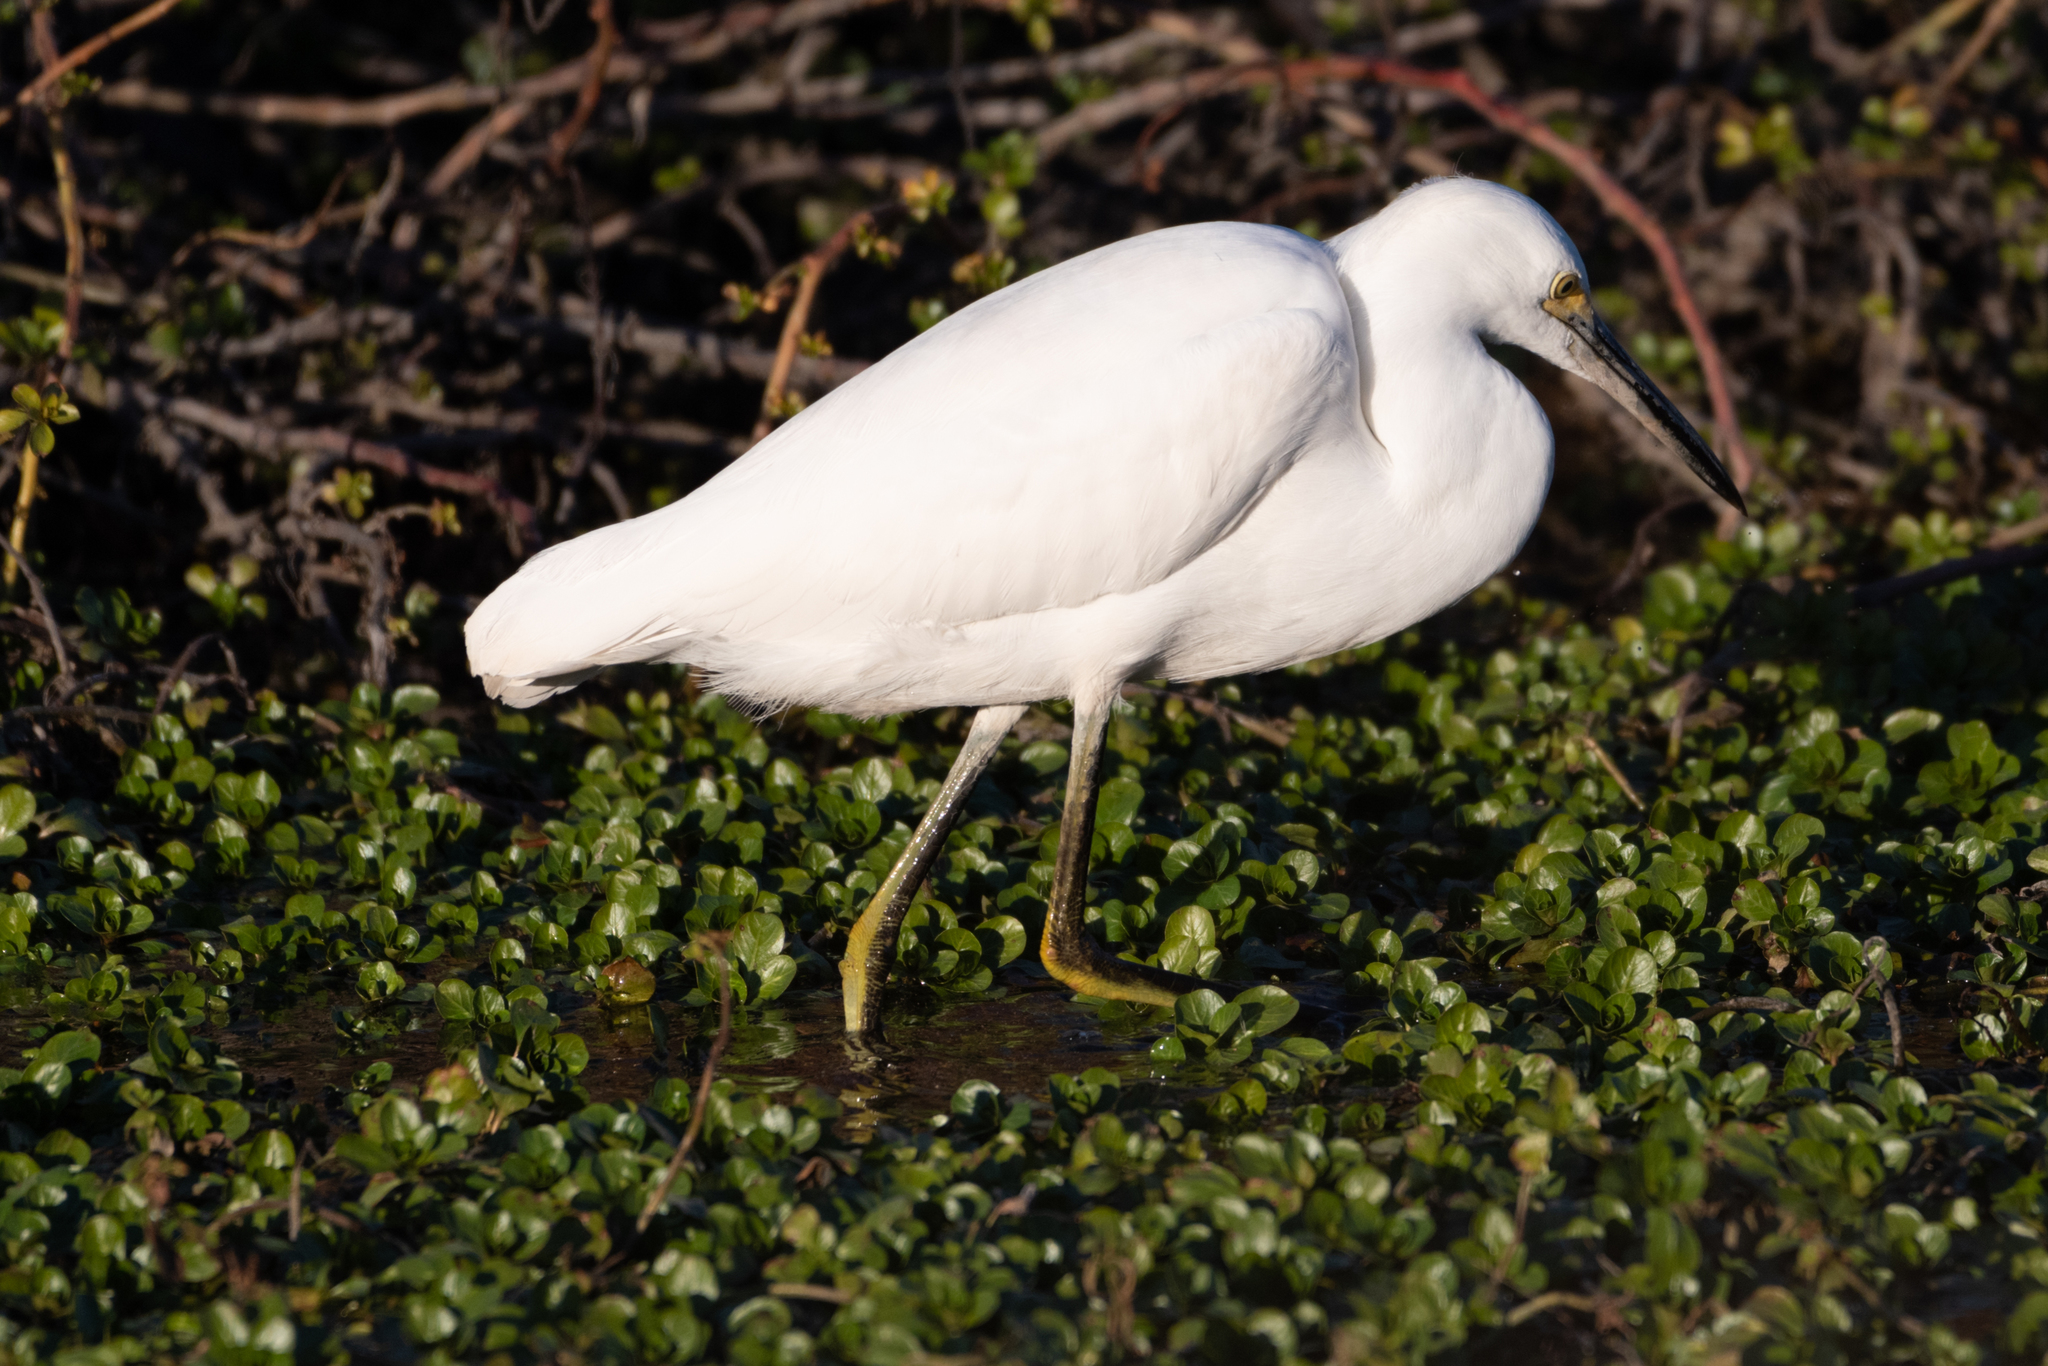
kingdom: Animalia
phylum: Chordata
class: Aves
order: Pelecaniformes
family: Ardeidae
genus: Egretta
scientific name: Egretta thula
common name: Snowy egret
